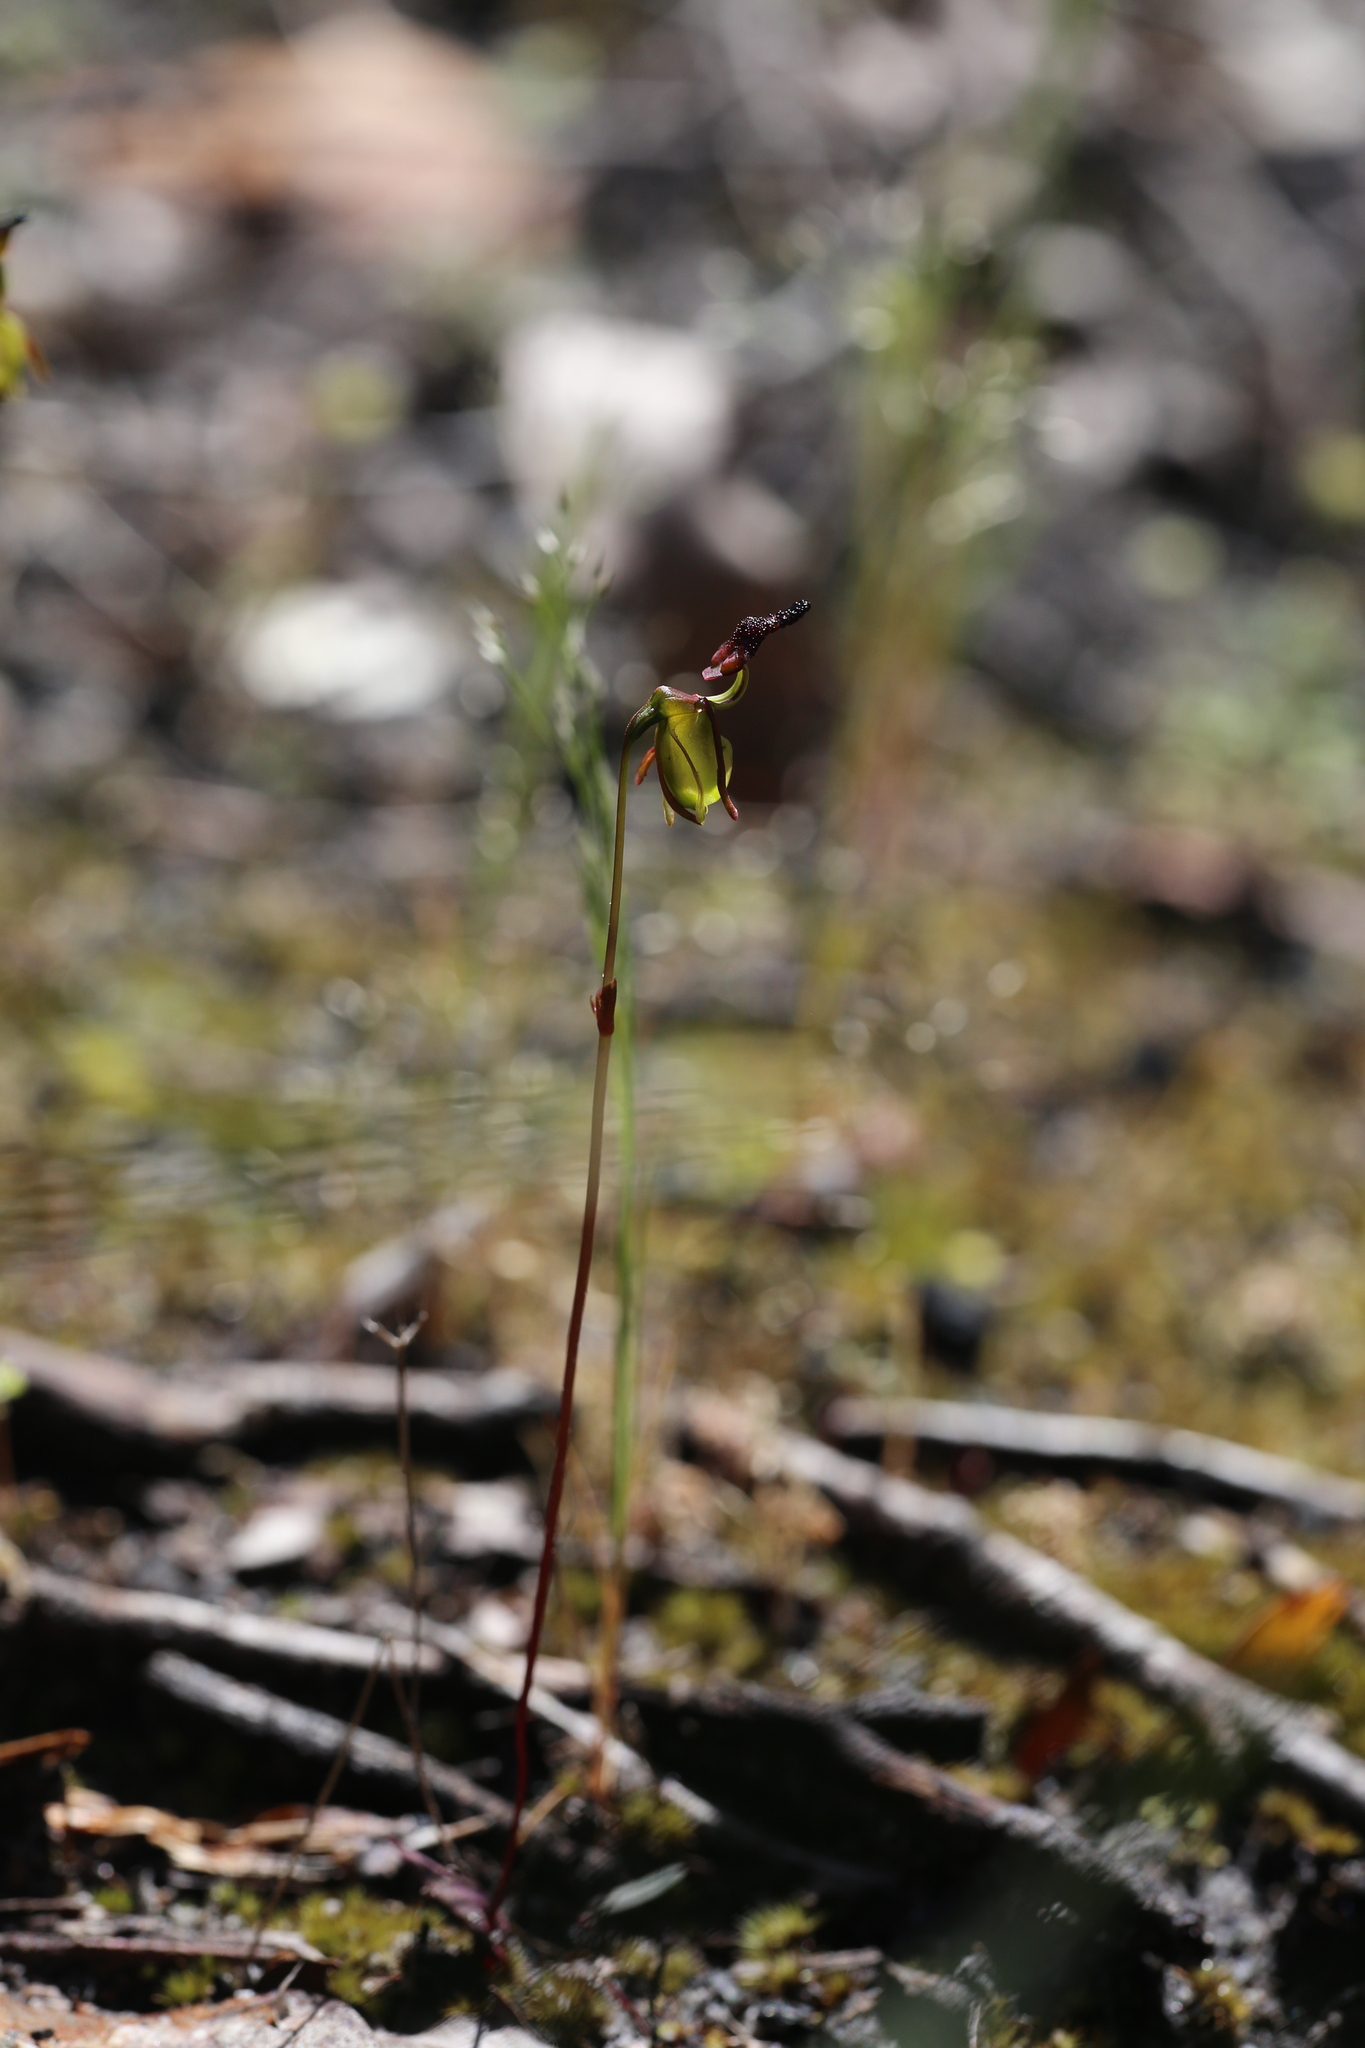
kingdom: Plantae
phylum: Tracheophyta
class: Liliopsida
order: Asparagales
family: Orchidaceae
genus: Caleana
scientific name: Caleana nigrita
